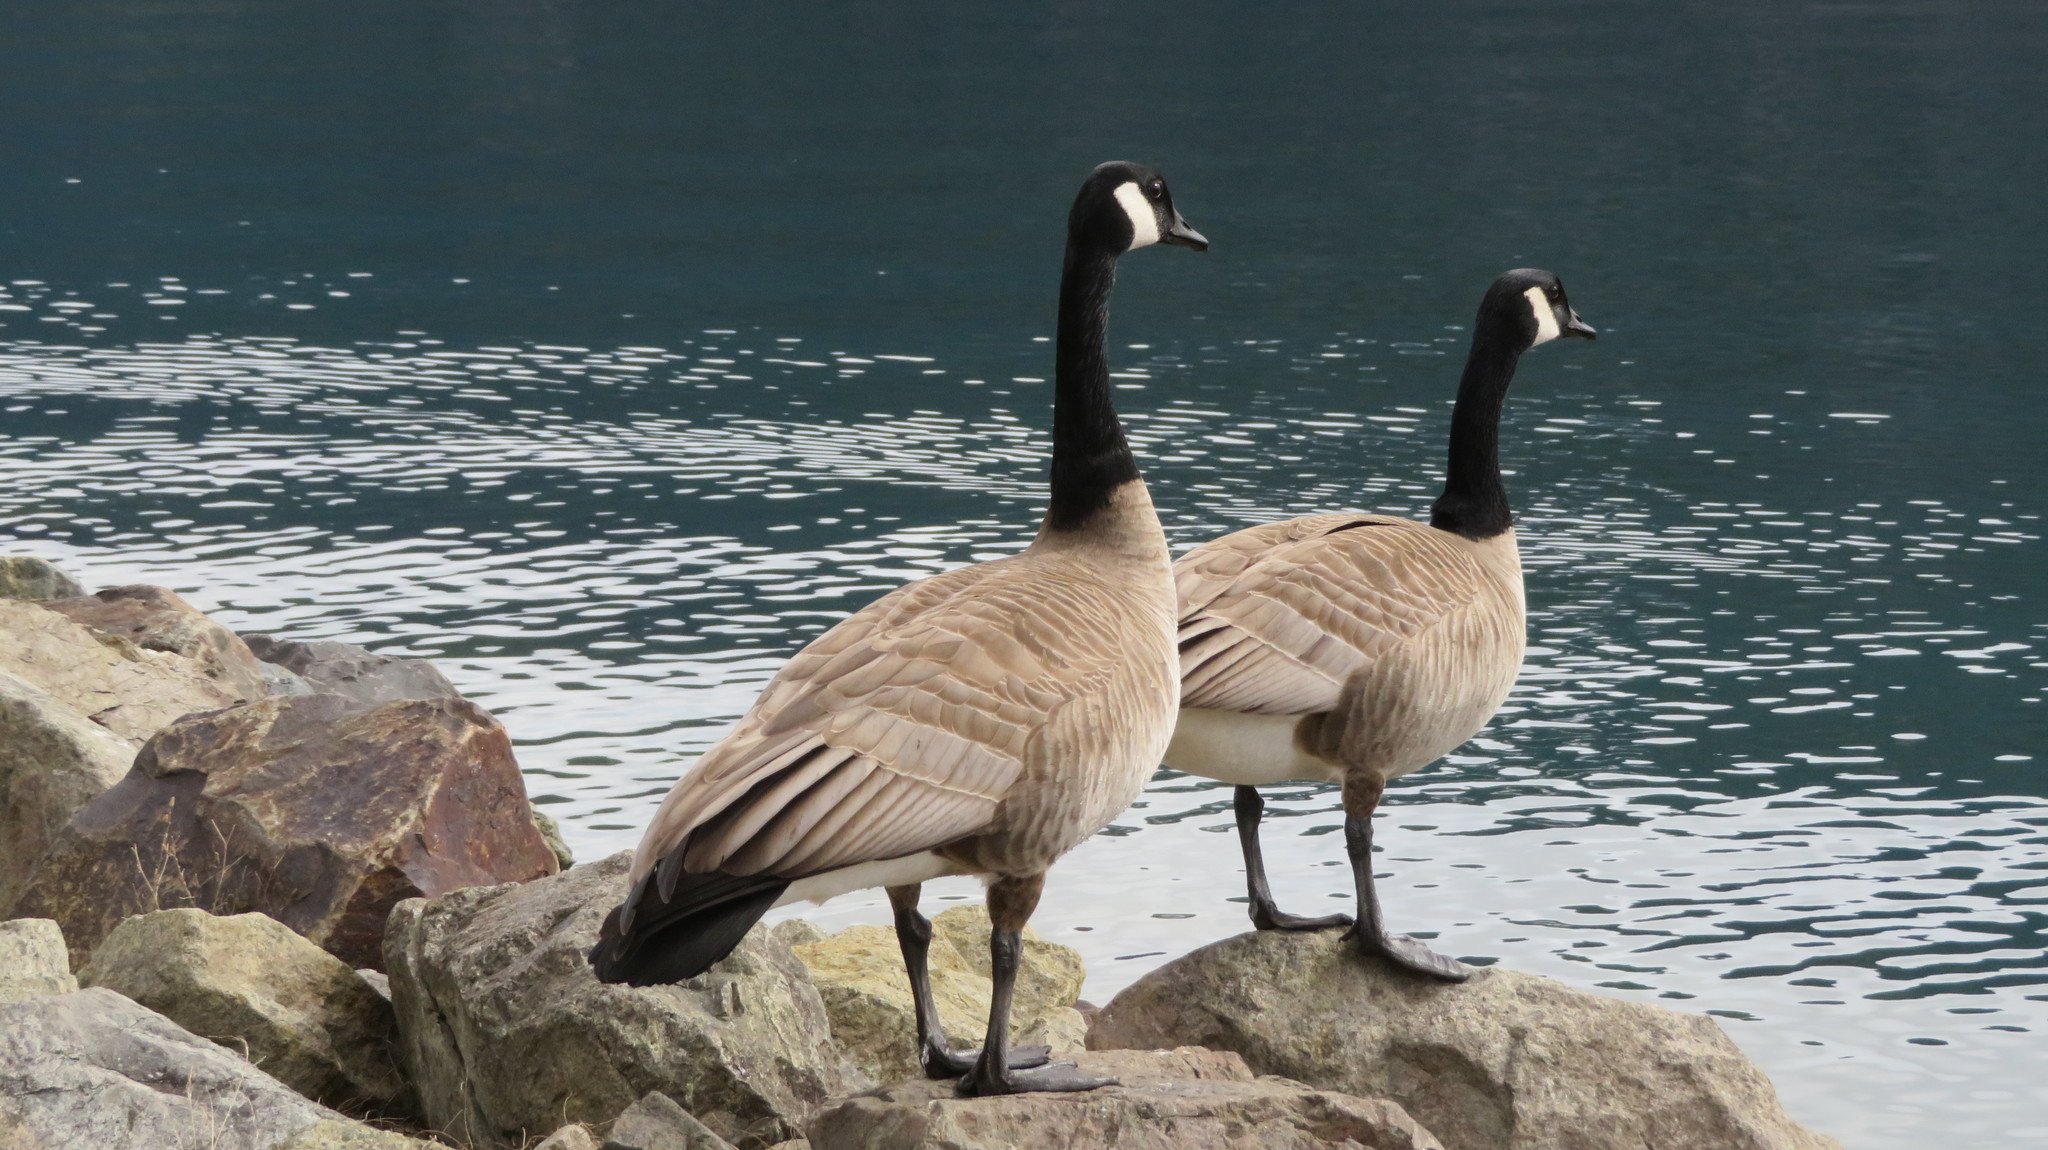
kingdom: Animalia
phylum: Chordata
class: Aves
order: Anseriformes
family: Anatidae
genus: Branta
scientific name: Branta canadensis
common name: Canada goose
